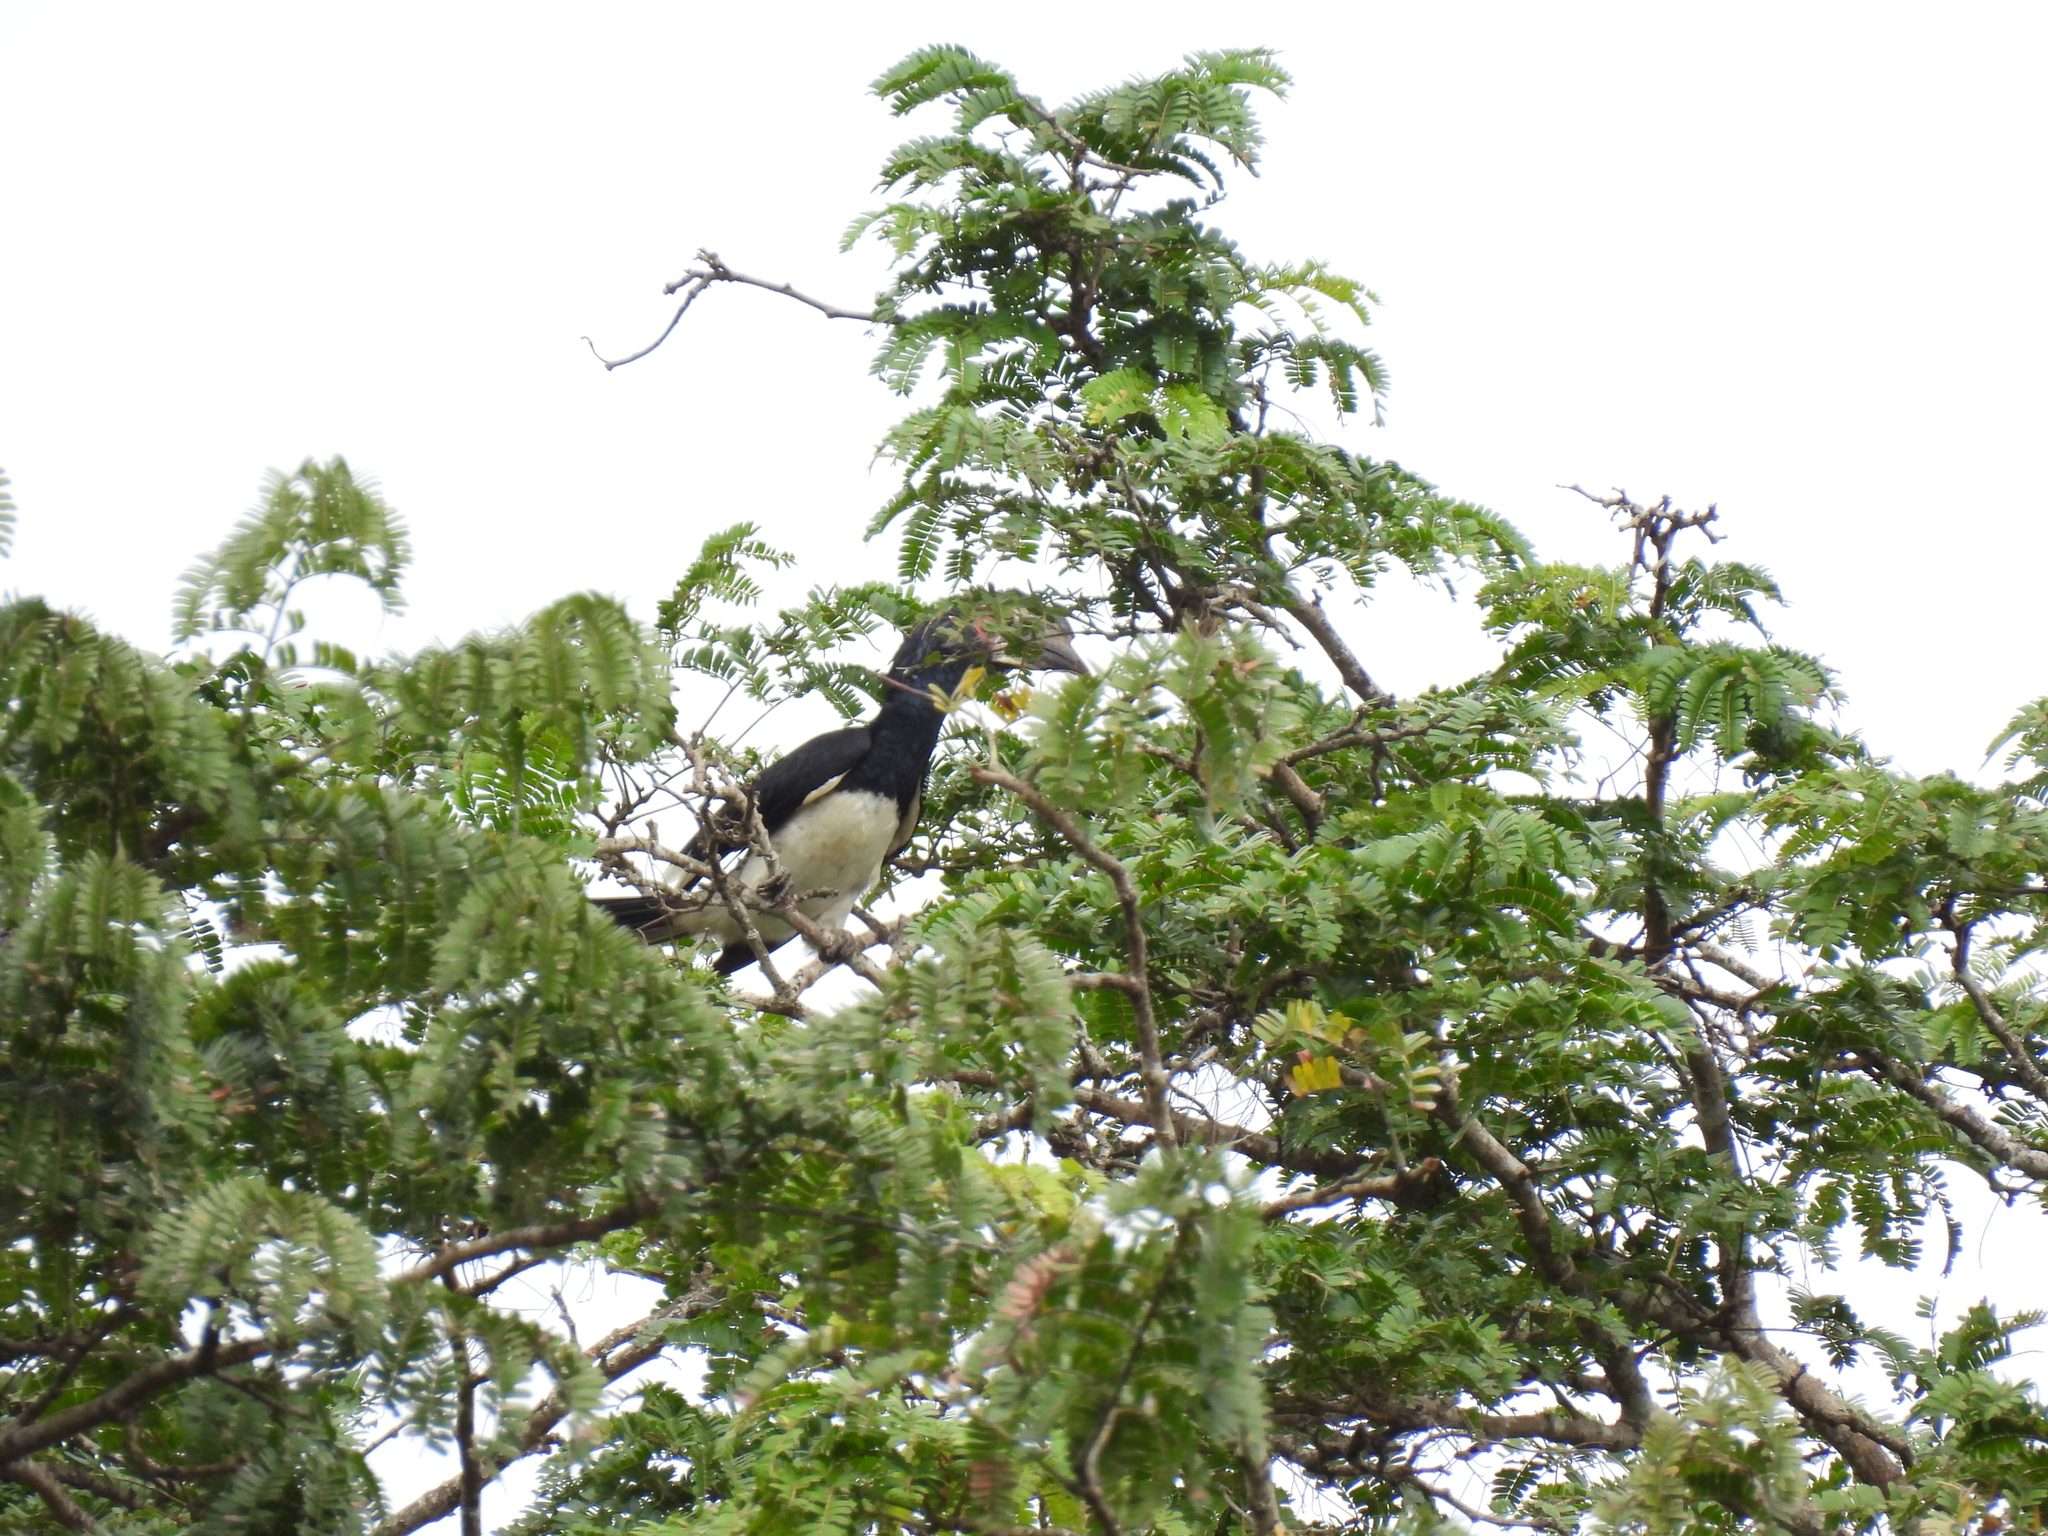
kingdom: Animalia
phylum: Chordata
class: Aves
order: Bucerotiformes
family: Bucerotidae
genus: Bycanistes
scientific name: Bycanistes bucinator
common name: Trumpeter hornbill
